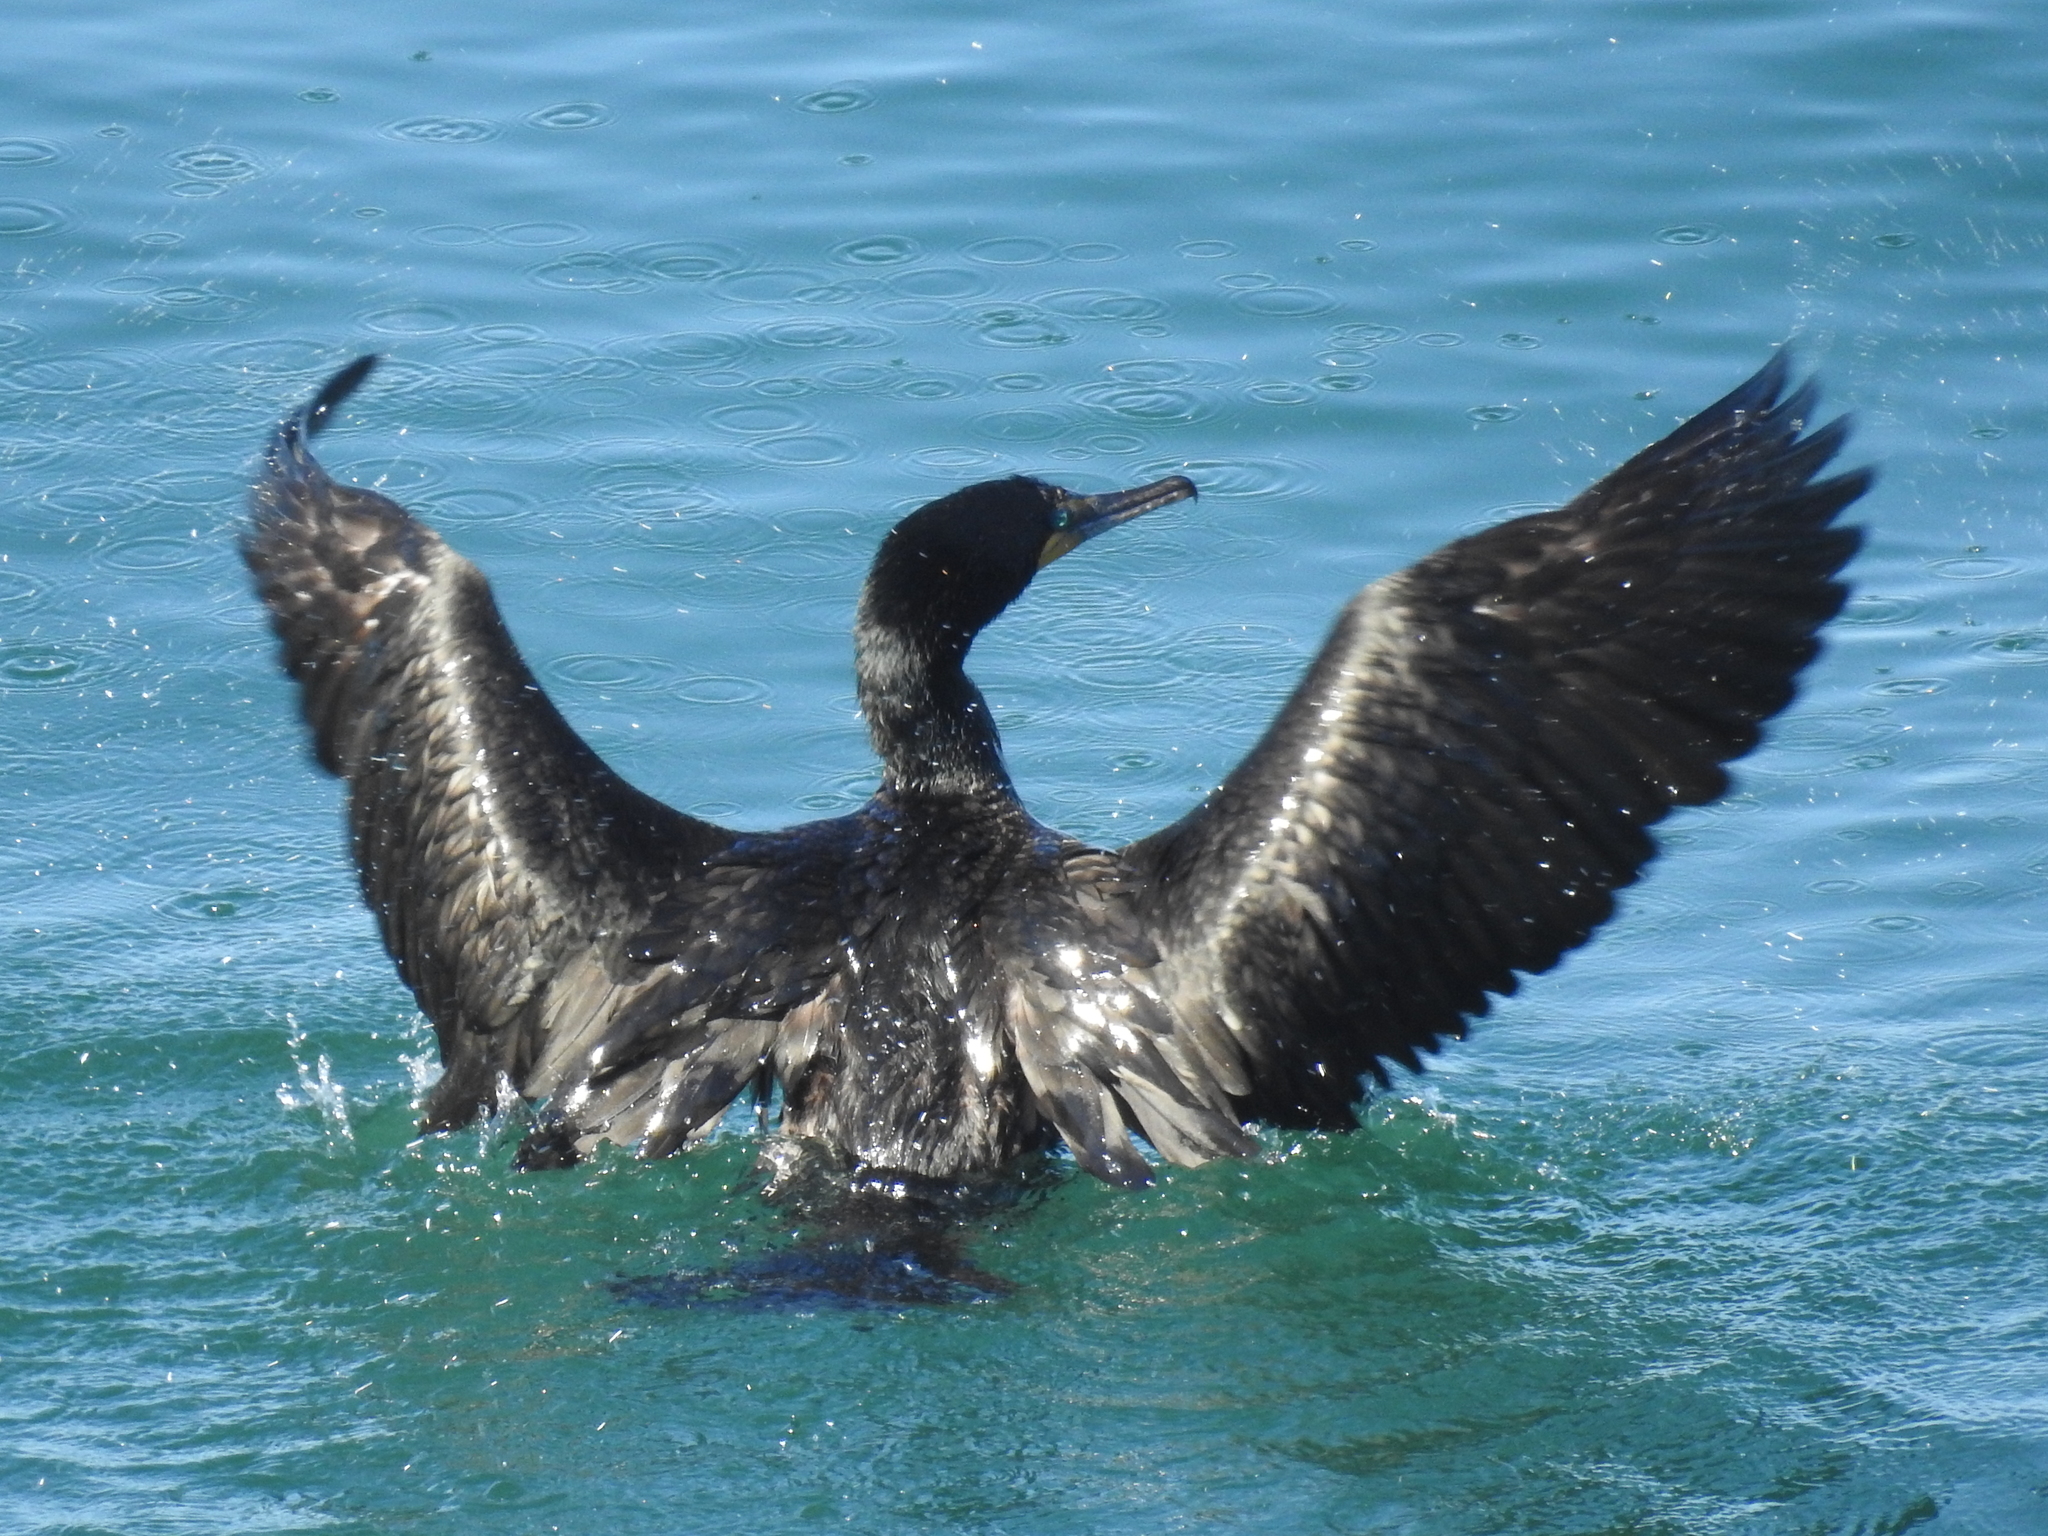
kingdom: Animalia
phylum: Chordata
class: Aves
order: Suliformes
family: Phalacrocoracidae
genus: Phalacrocorax
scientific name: Phalacrocorax auritus
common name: Double-crested cormorant
